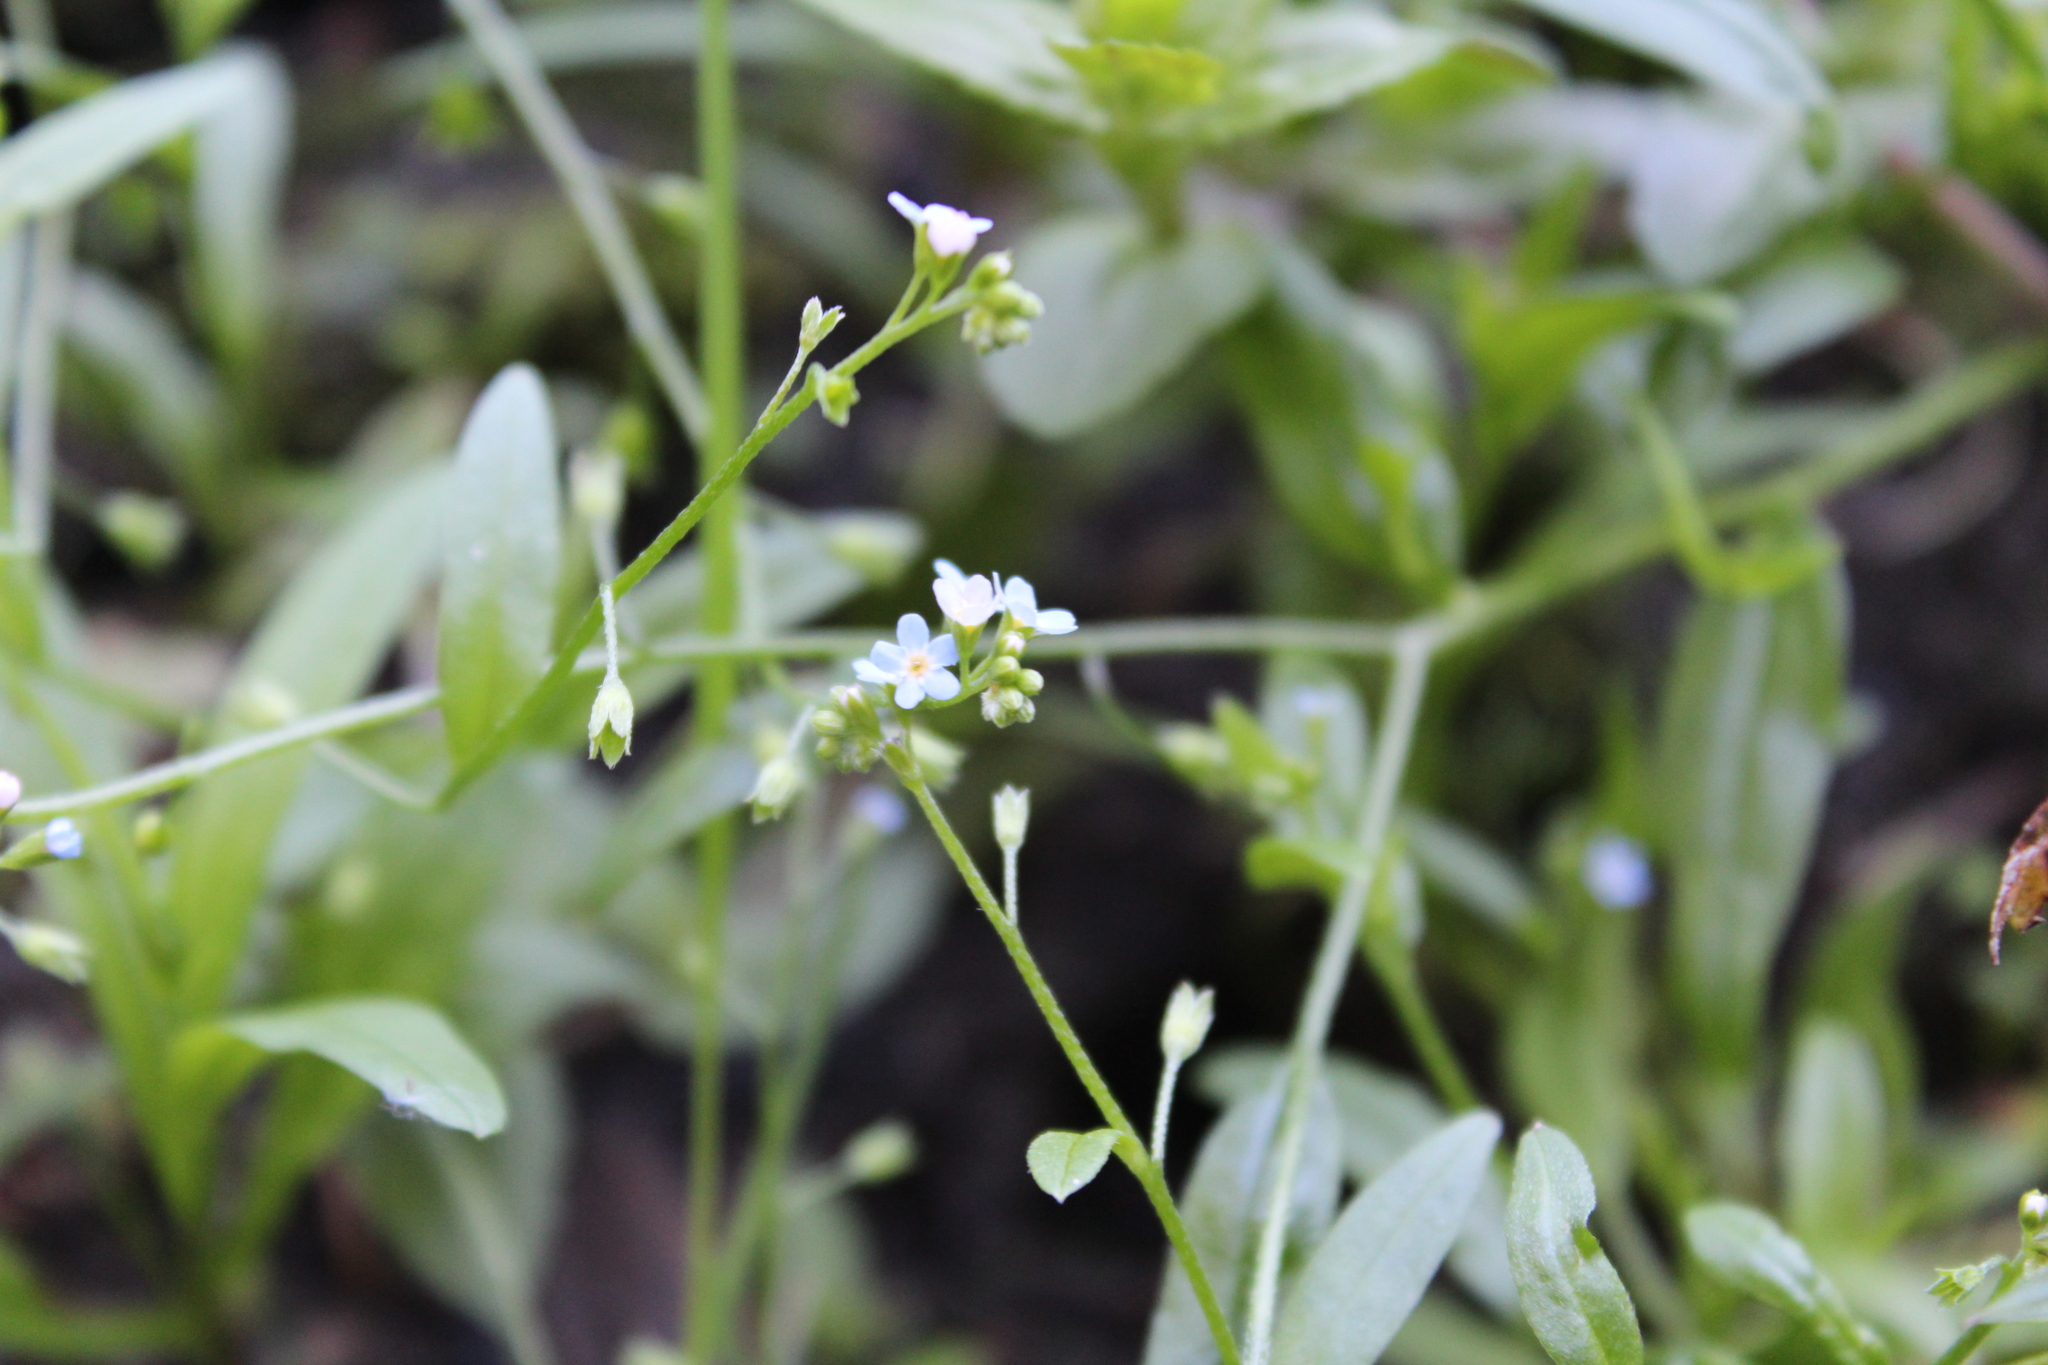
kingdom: Plantae
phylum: Tracheophyta
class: Magnoliopsida
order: Boraginales
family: Boraginaceae
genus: Myosotis
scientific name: Myosotis laxa
